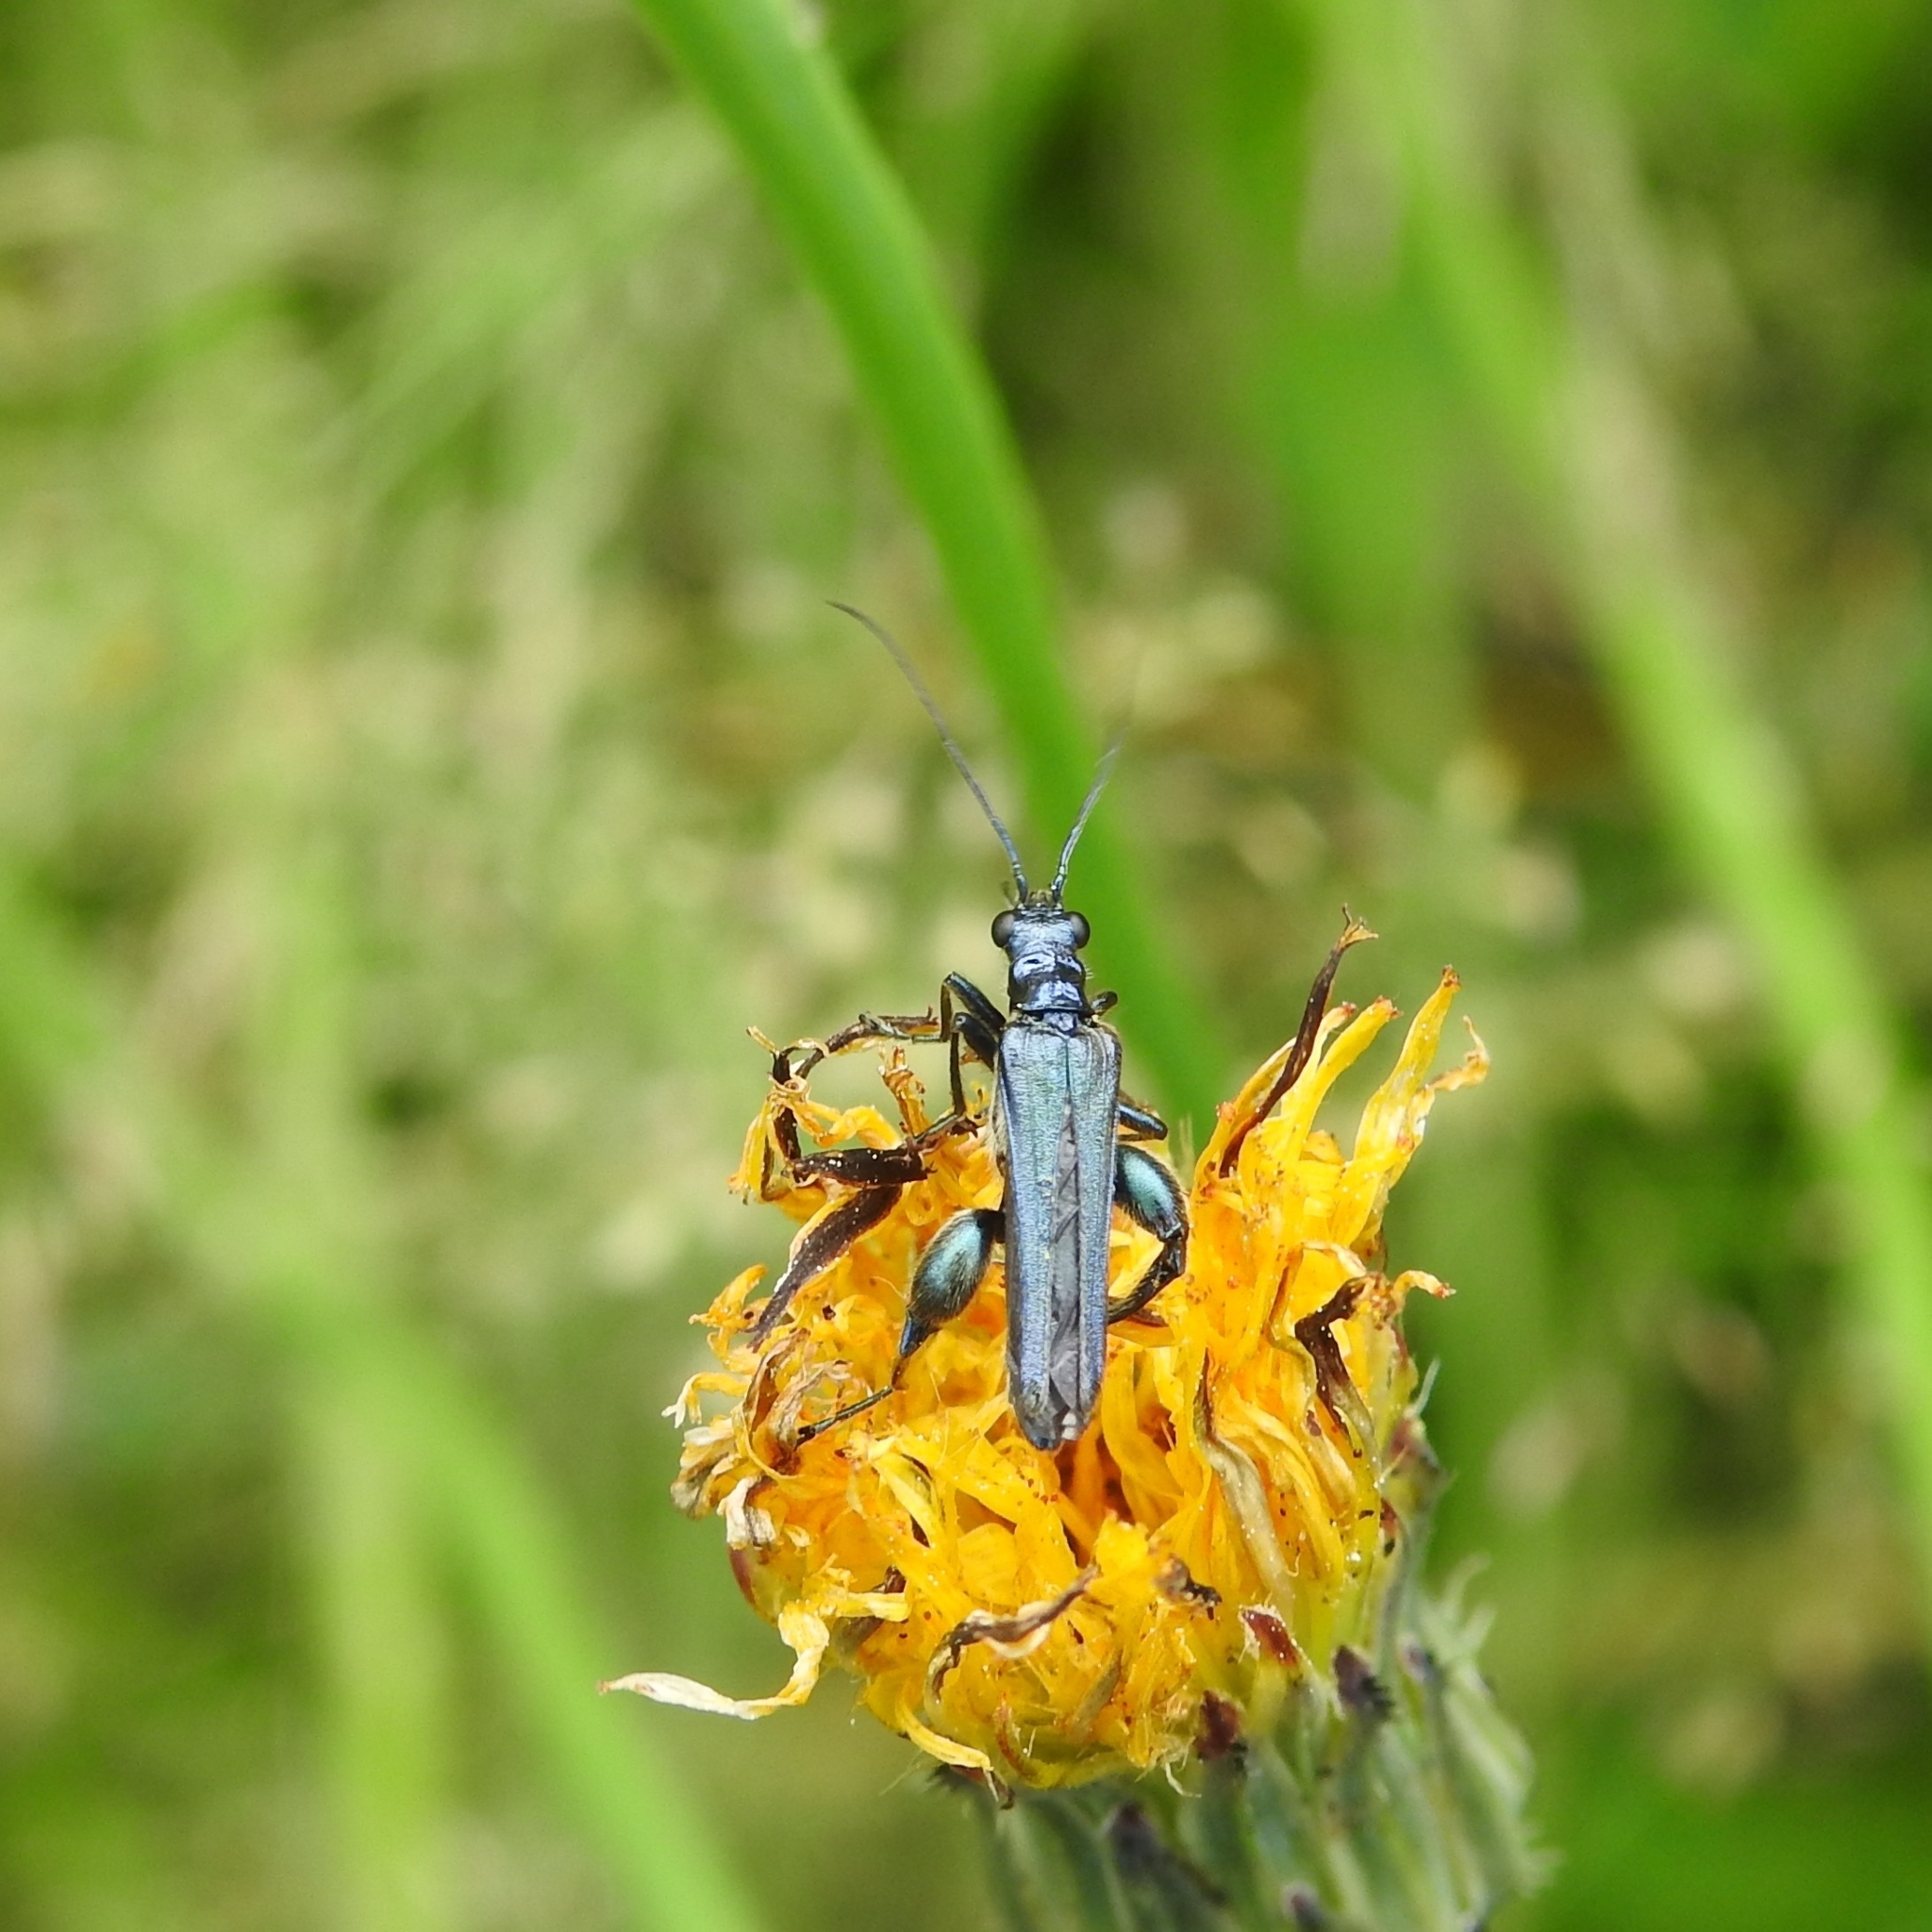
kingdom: Animalia
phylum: Arthropoda
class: Insecta
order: Coleoptera
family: Oedemeridae
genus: Oedemera
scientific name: Oedemera nobilis
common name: Swollen-thighed beetle
